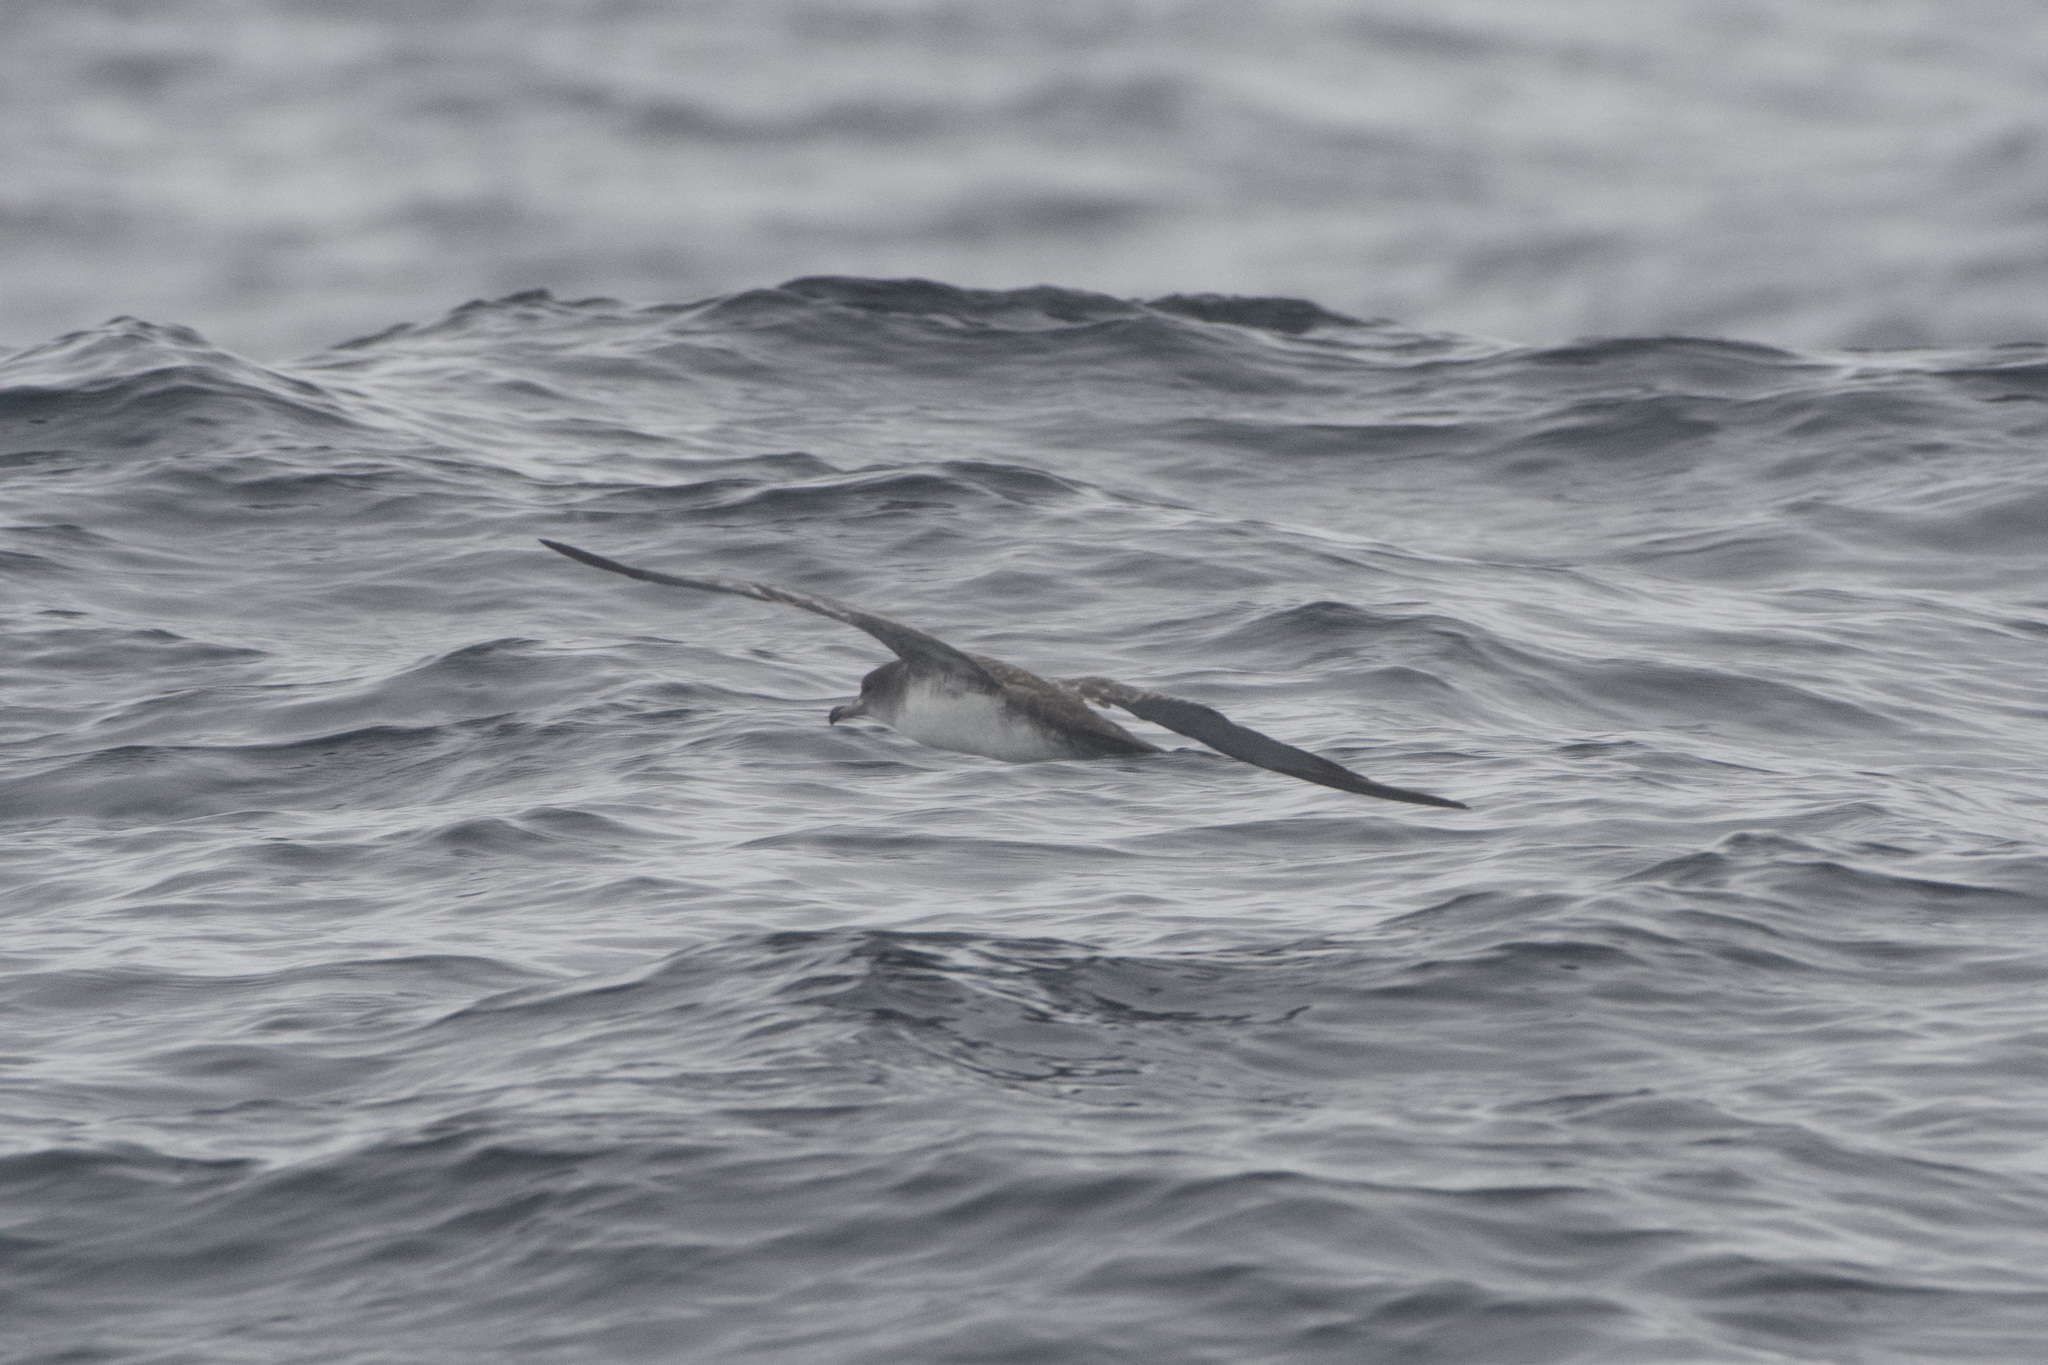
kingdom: Animalia
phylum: Chordata
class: Aves
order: Procellariiformes
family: Procellariidae
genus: Puffinus
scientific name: Puffinus creatopus
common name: Pink-footed shearwater
